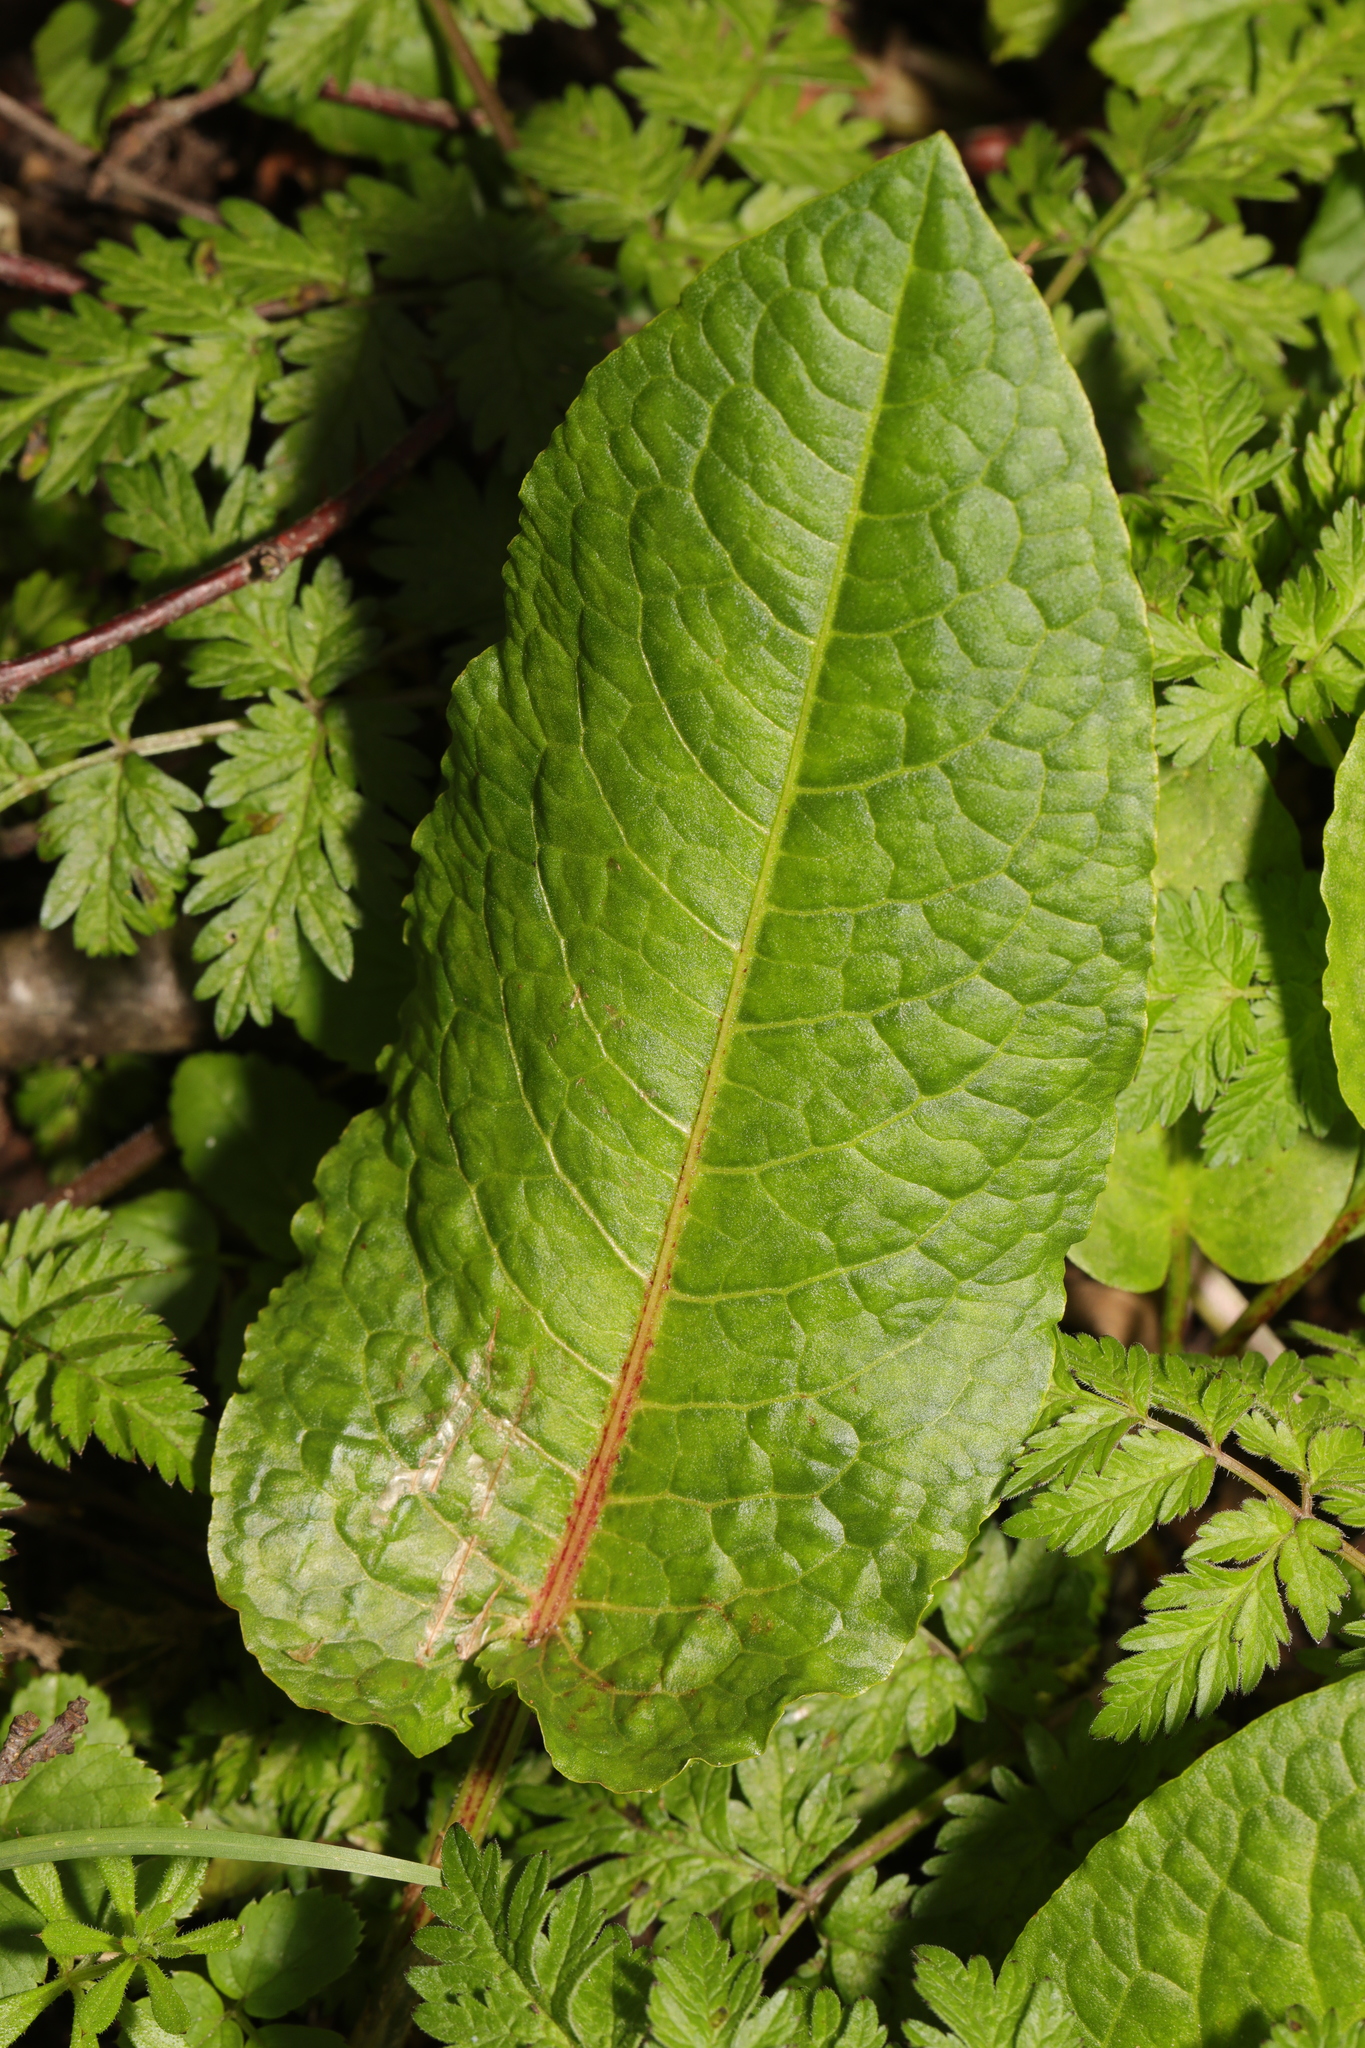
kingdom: Plantae
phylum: Tracheophyta
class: Magnoliopsida
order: Caryophyllales
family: Polygonaceae
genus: Rumex
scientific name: Rumex obtusifolius
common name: Bitter dock
